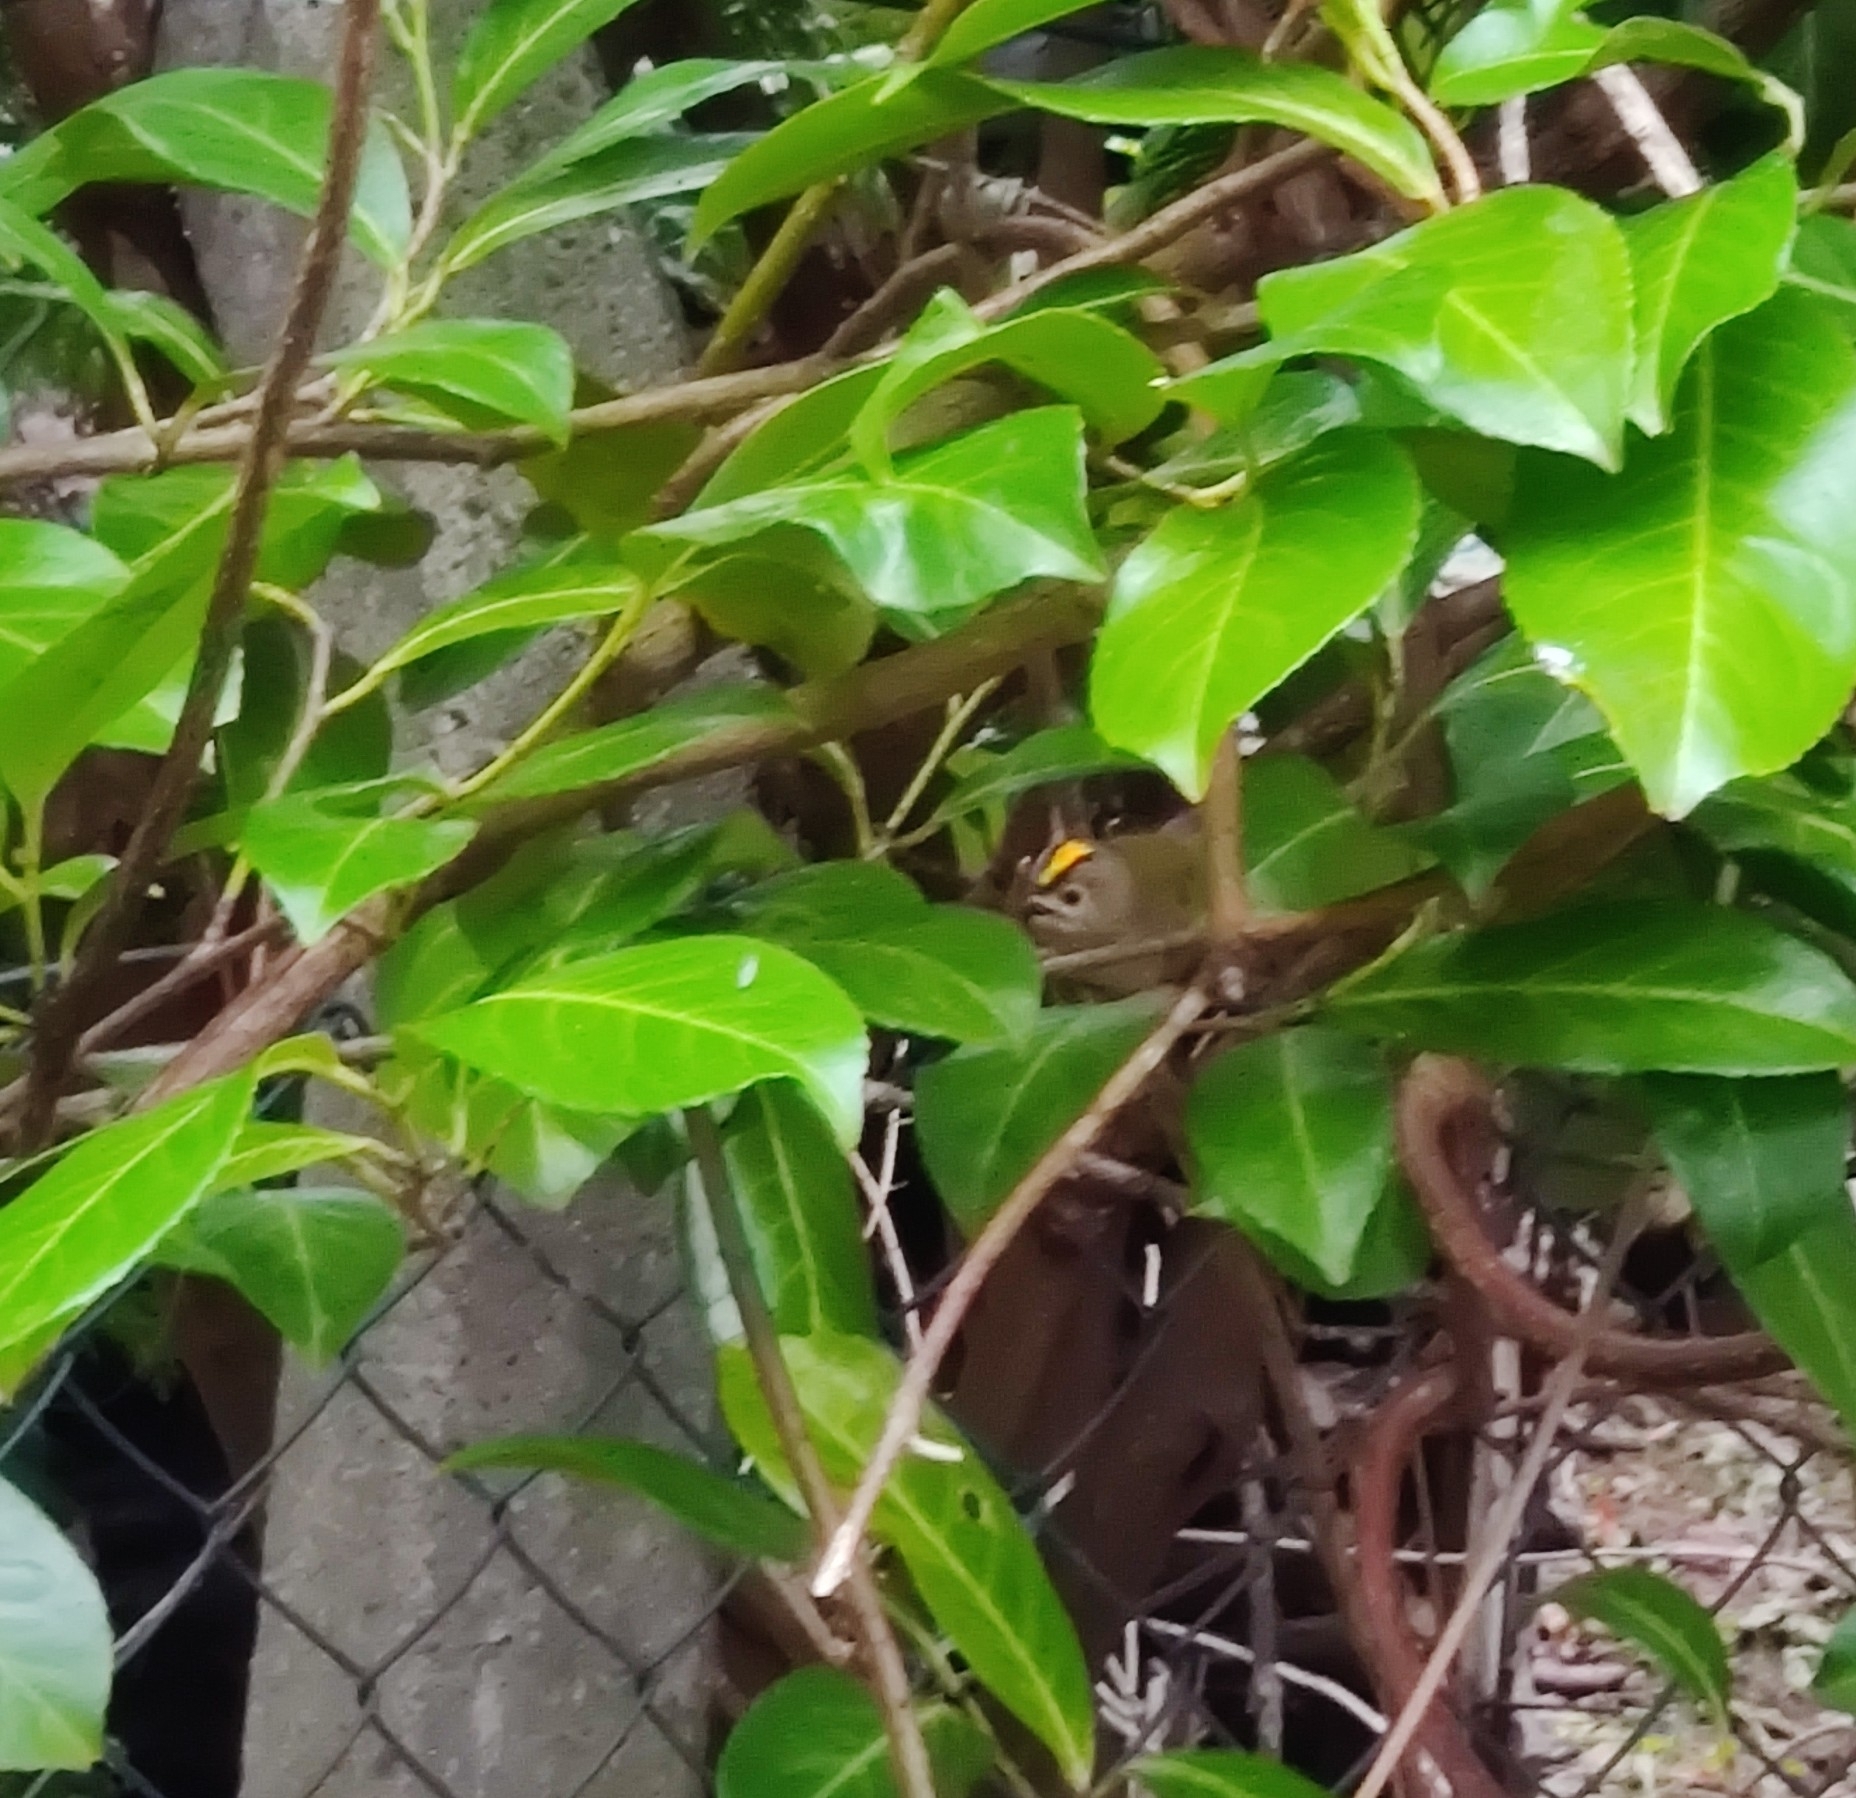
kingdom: Animalia
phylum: Chordata
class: Aves
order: Passeriformes
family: Regulidae
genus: Regulus
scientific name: Regulus regulus
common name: Goldcrest
